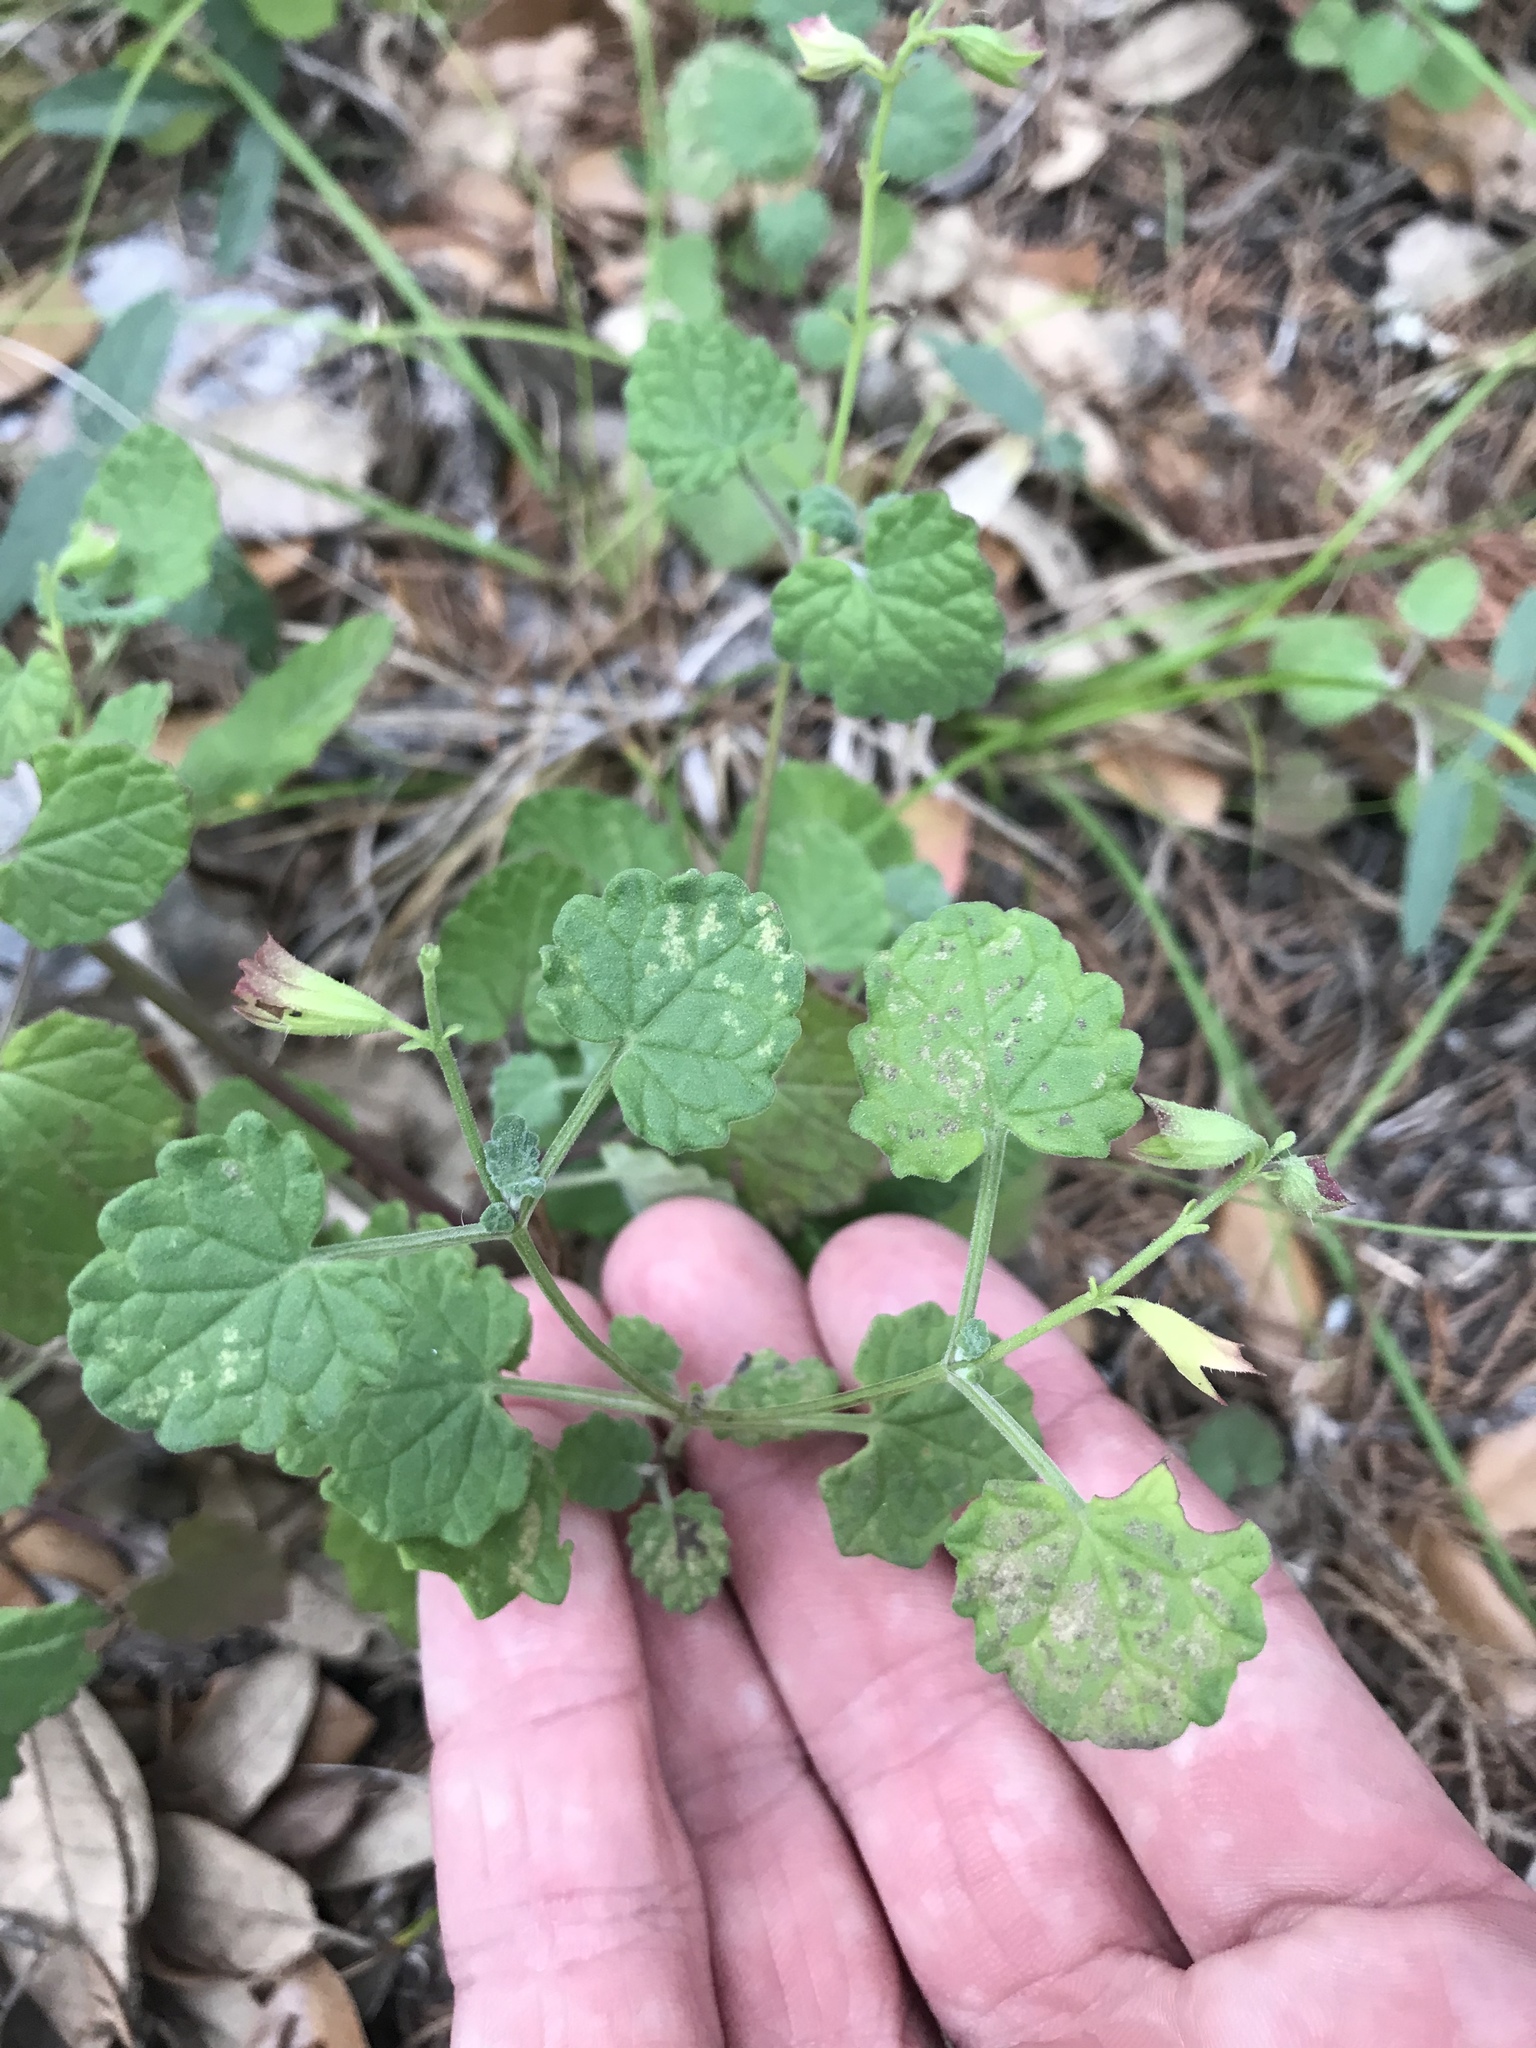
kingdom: Plantae
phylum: Tracheophyta
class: Magnoliopsida
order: Lamiales
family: Lamiaceae
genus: Salvia
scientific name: Salvia roemeriana
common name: Cedar sage
